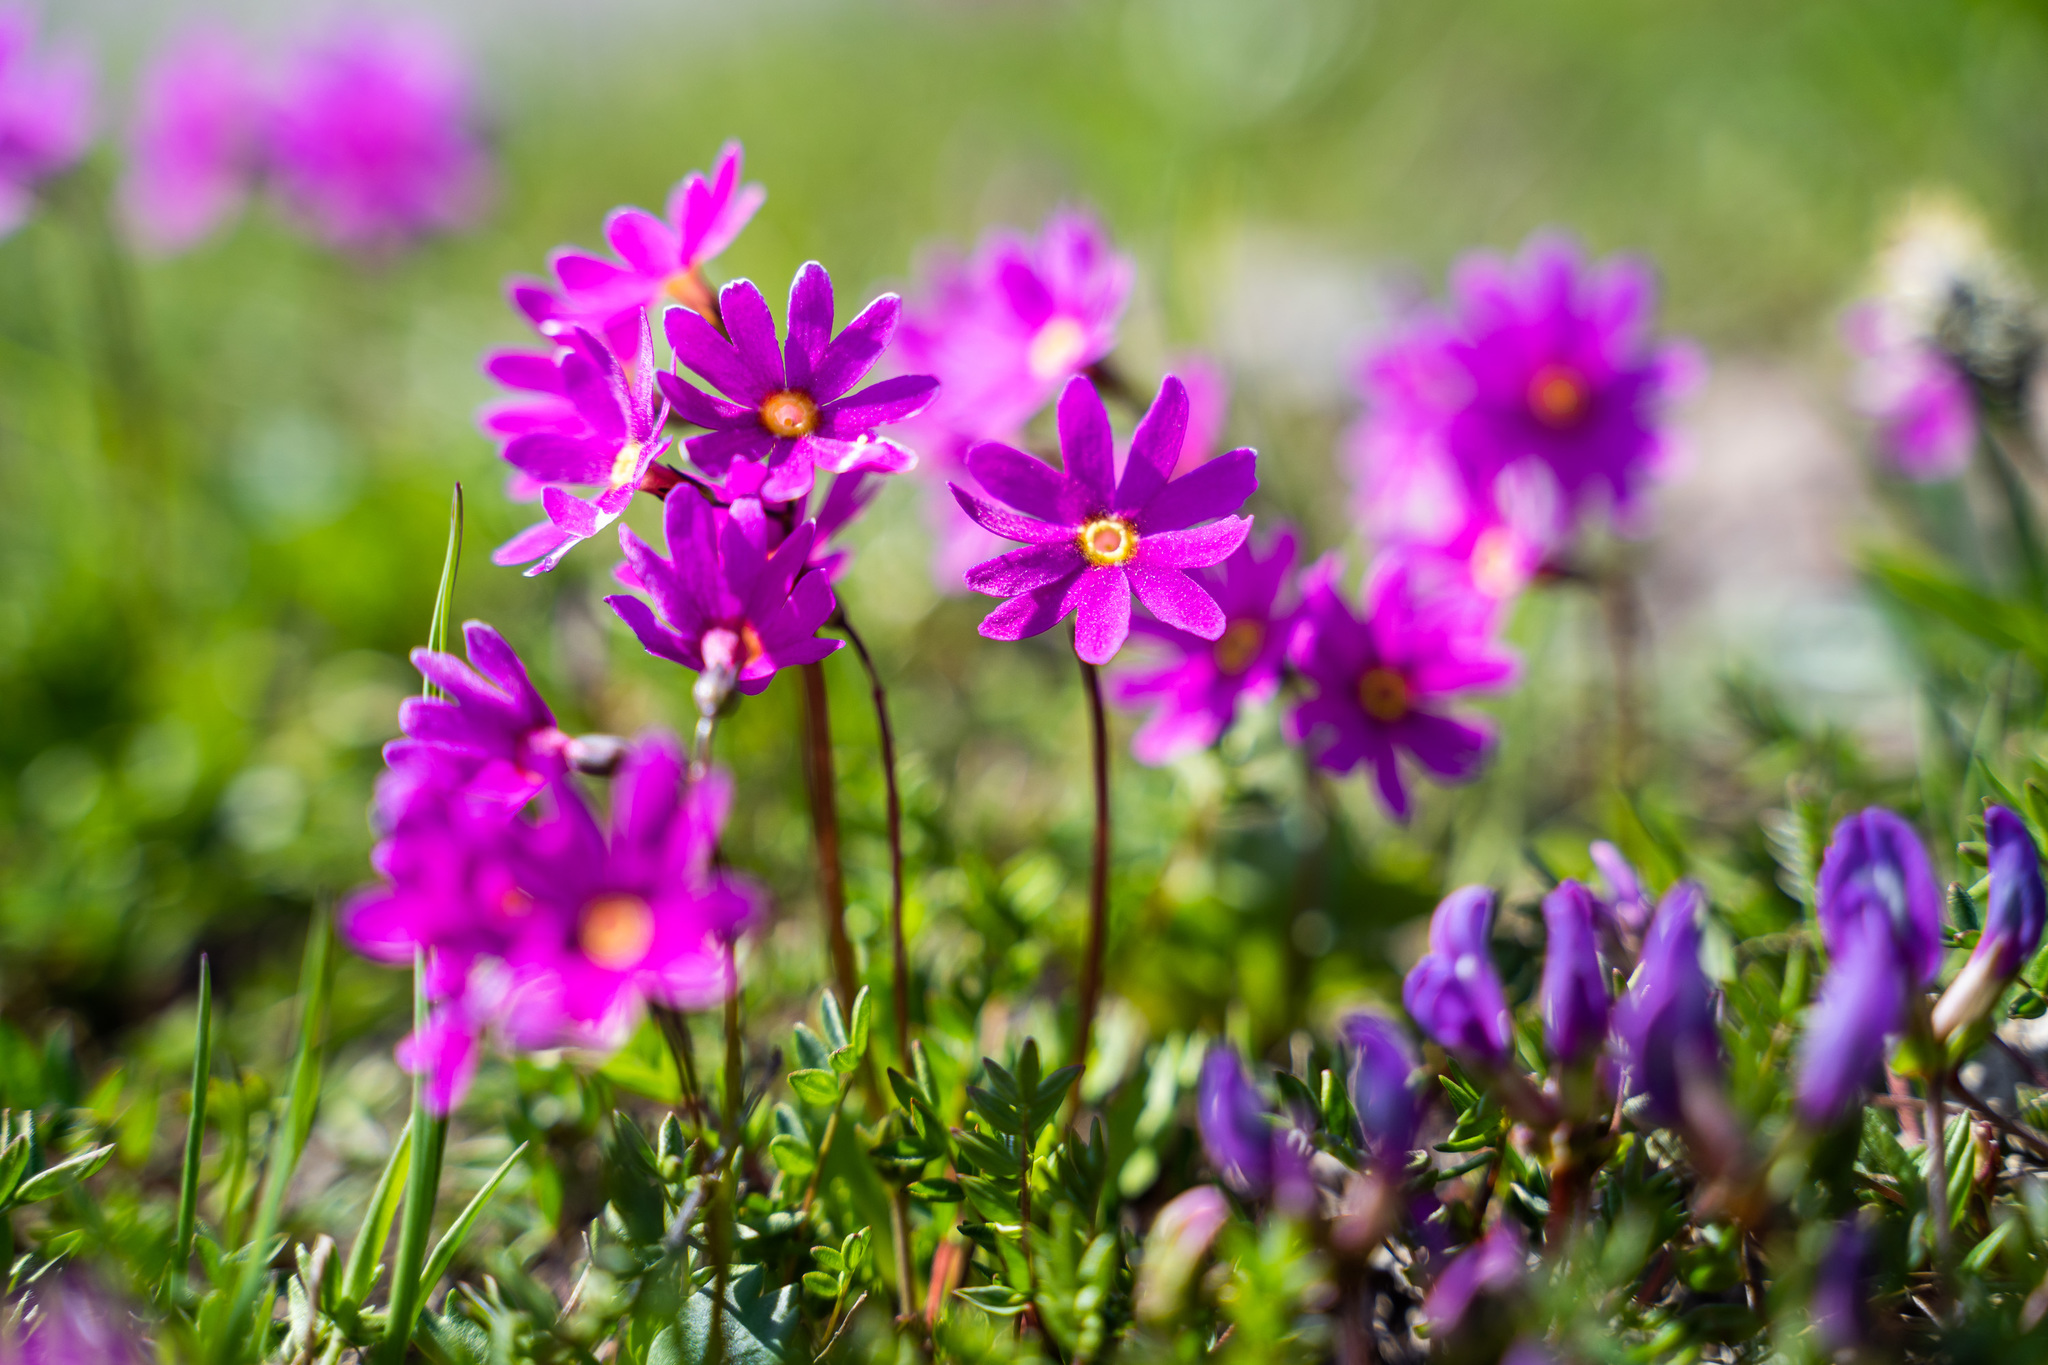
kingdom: Plantae
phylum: Tracheophyta
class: Magnoliopsida
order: Ericales
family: Primulaceae
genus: Primula
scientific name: Primula cuneifolia
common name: Wedge-leaved primrose
